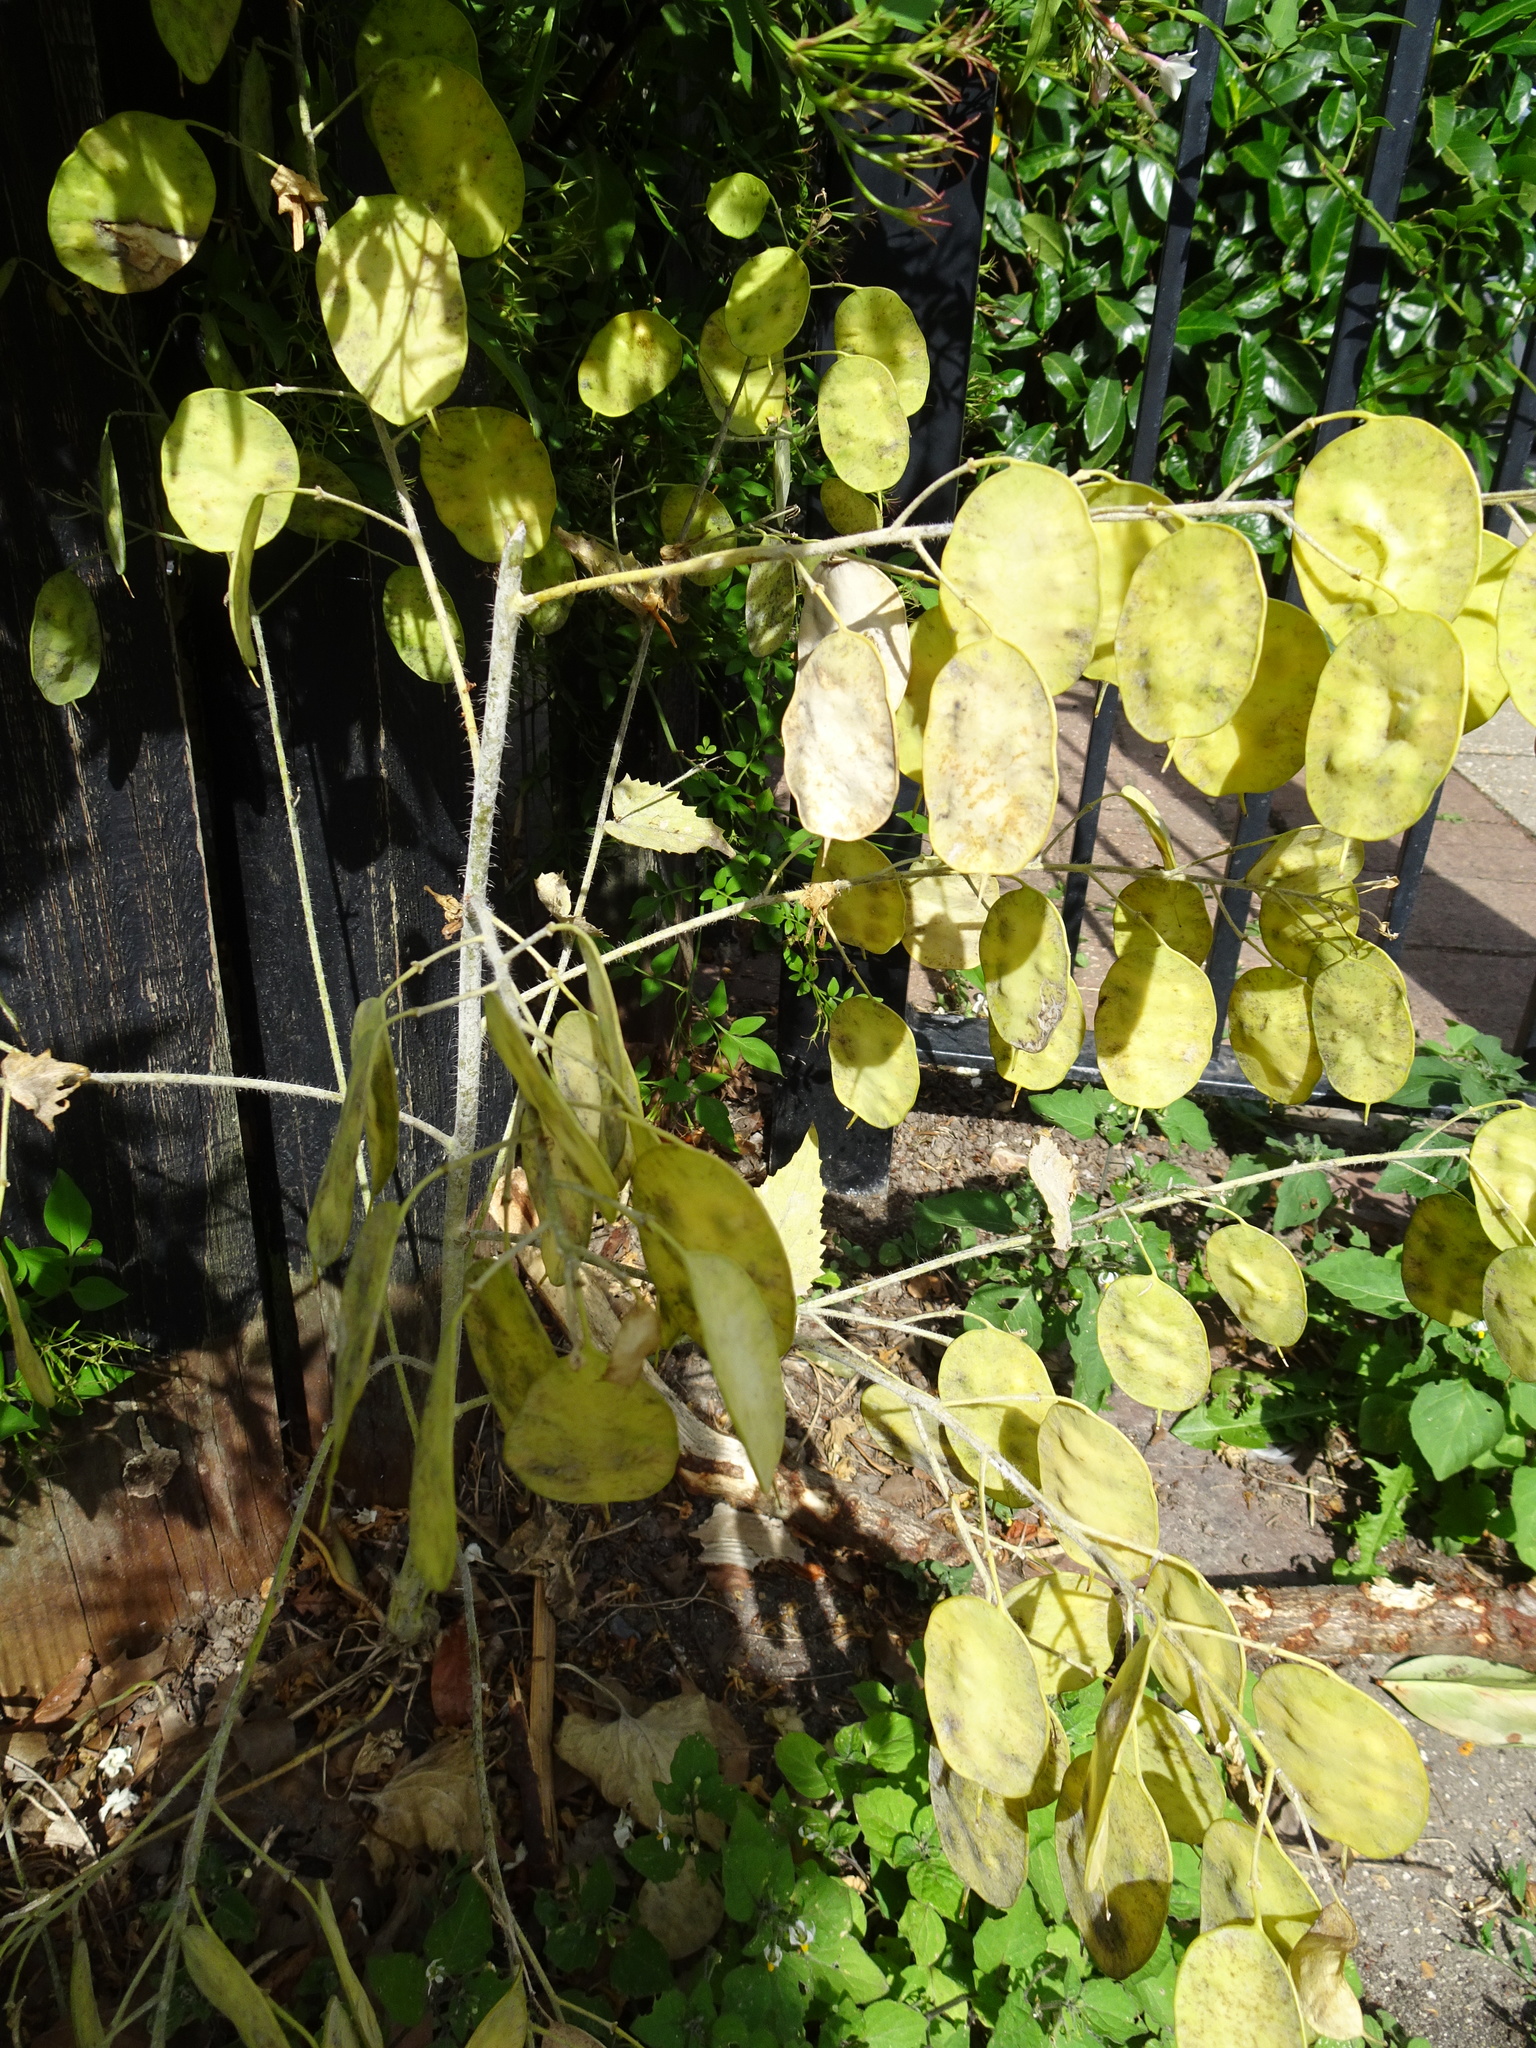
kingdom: Plantae
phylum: Tracheophyta
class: Magnoliopsida
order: Brassicales
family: Brassicaceae
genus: Lunaria
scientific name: Lunaria annua
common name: Honesty
